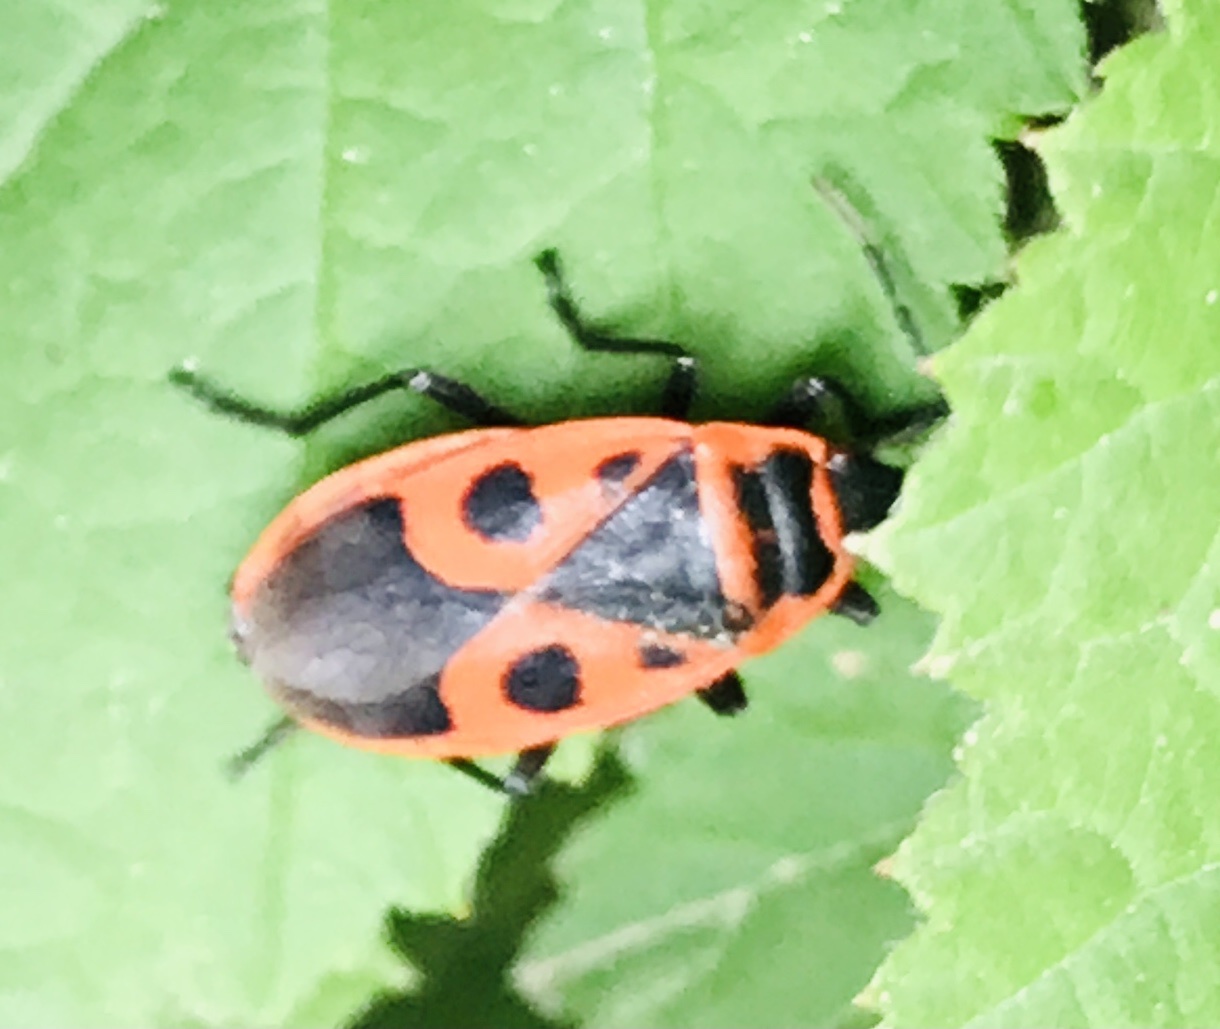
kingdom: Animalia
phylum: Arthropoda
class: Insecta
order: Hemiptera
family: Pyrrhocoridae
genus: Pyrrhocoris
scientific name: Pyrrhocoris apterus
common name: Firebug
